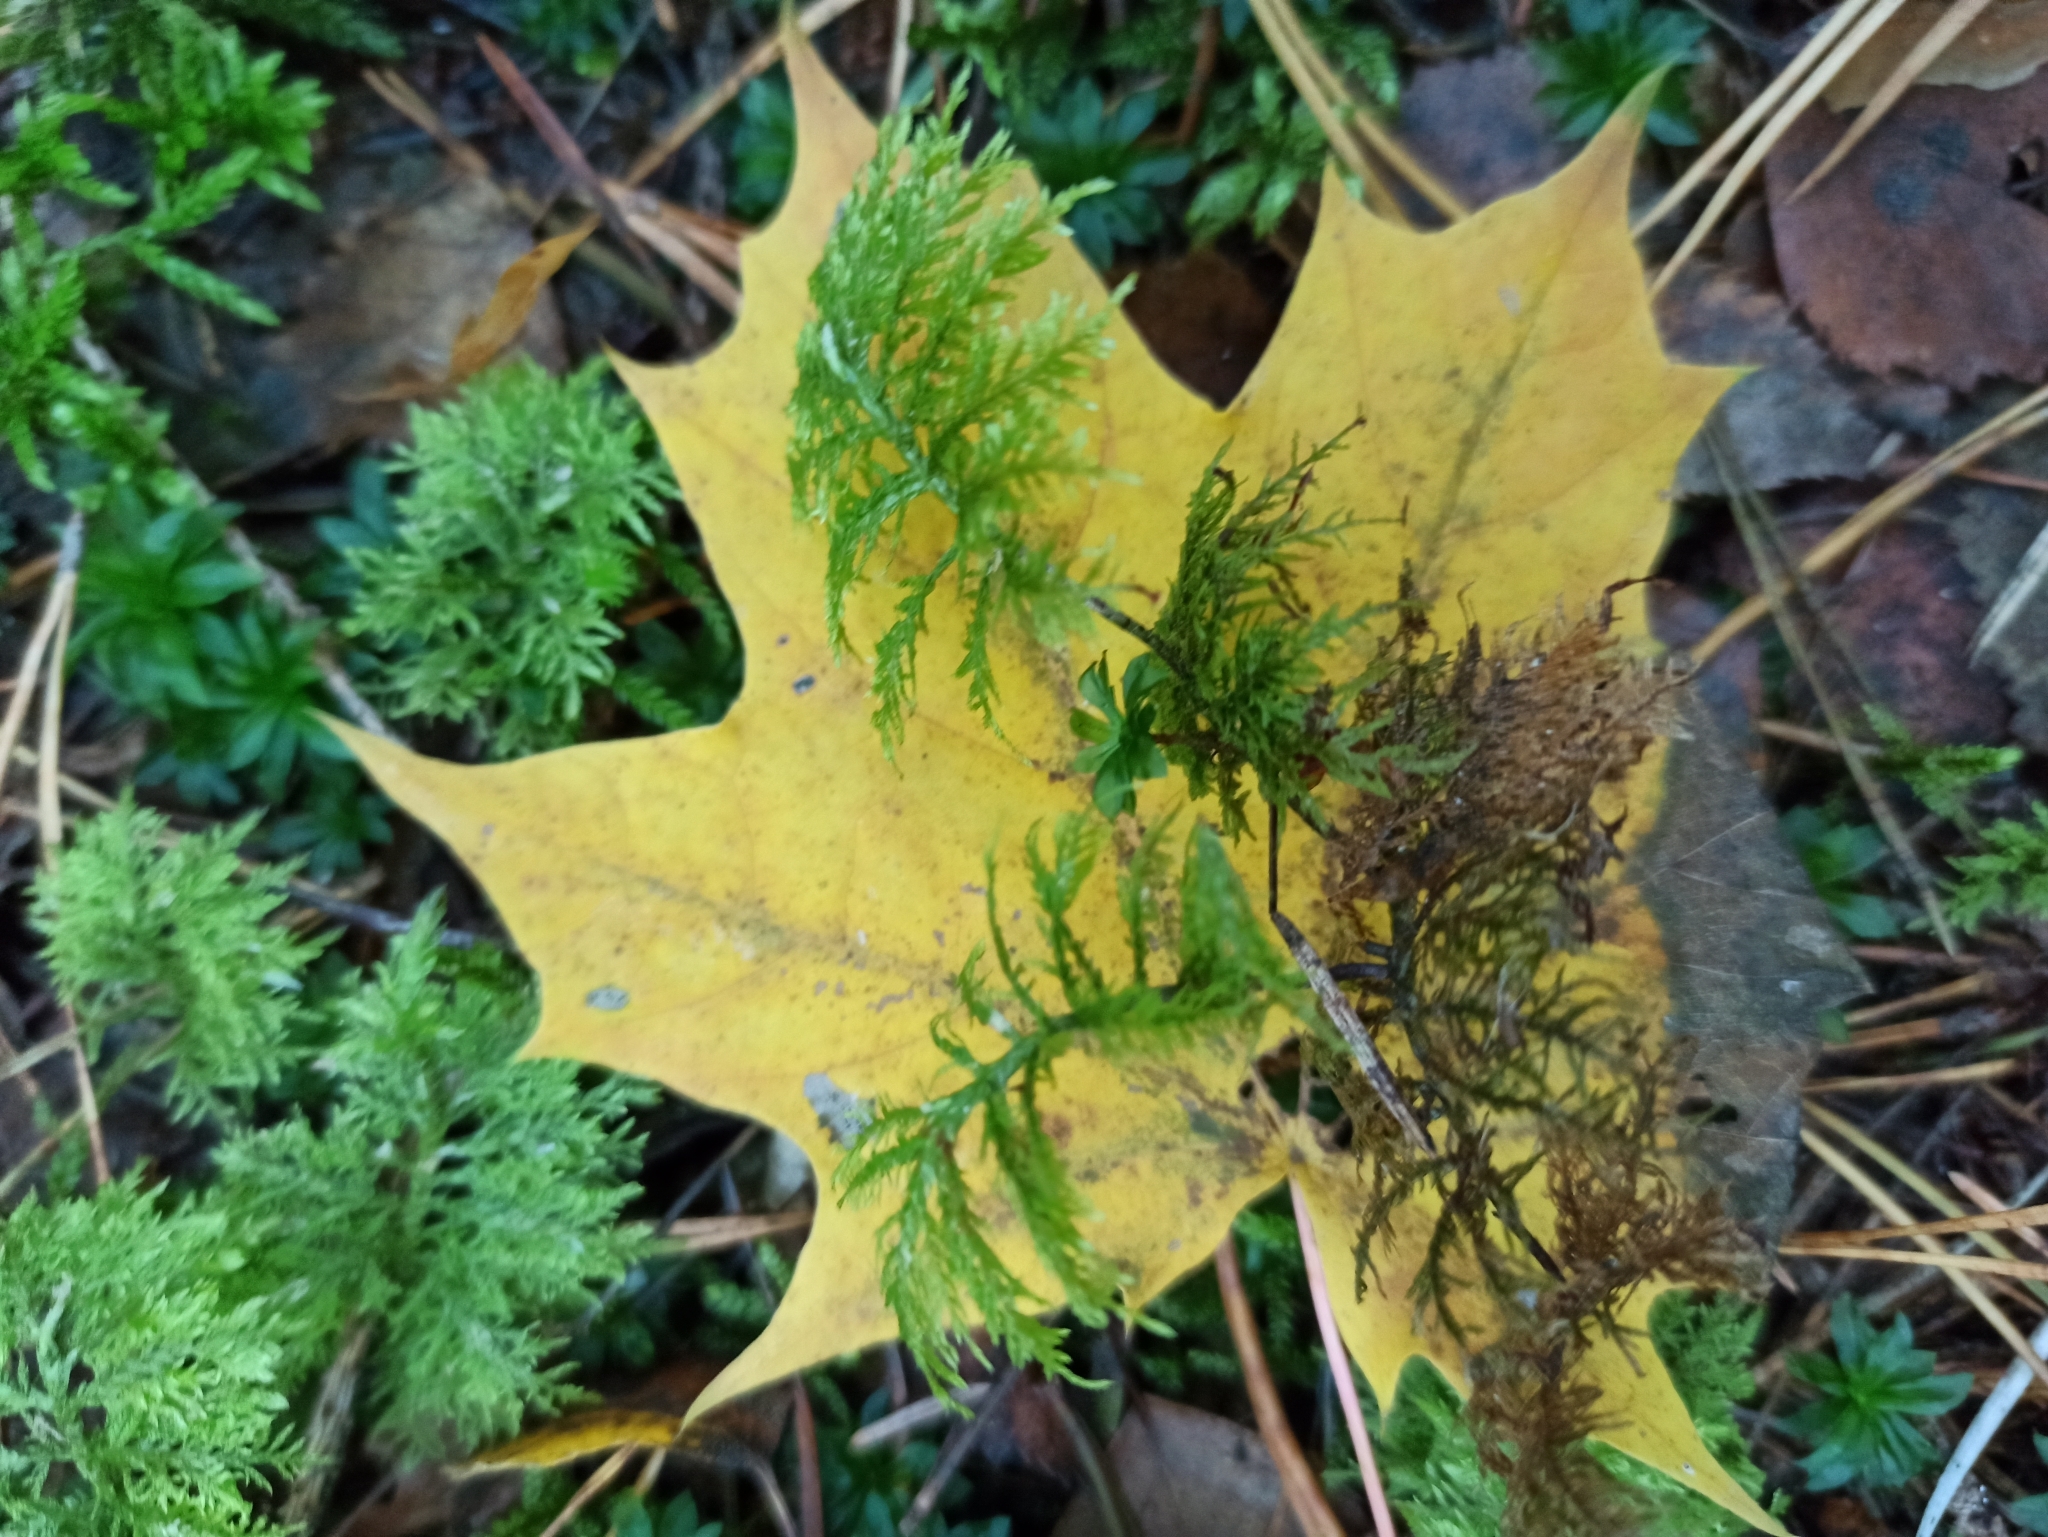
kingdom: Plantae
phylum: Bryophyta
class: Bryopsida
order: Hypnales
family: Hylocomiaceae
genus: Hylocomium
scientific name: Hylocomium splendens
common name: Stairstep moss
